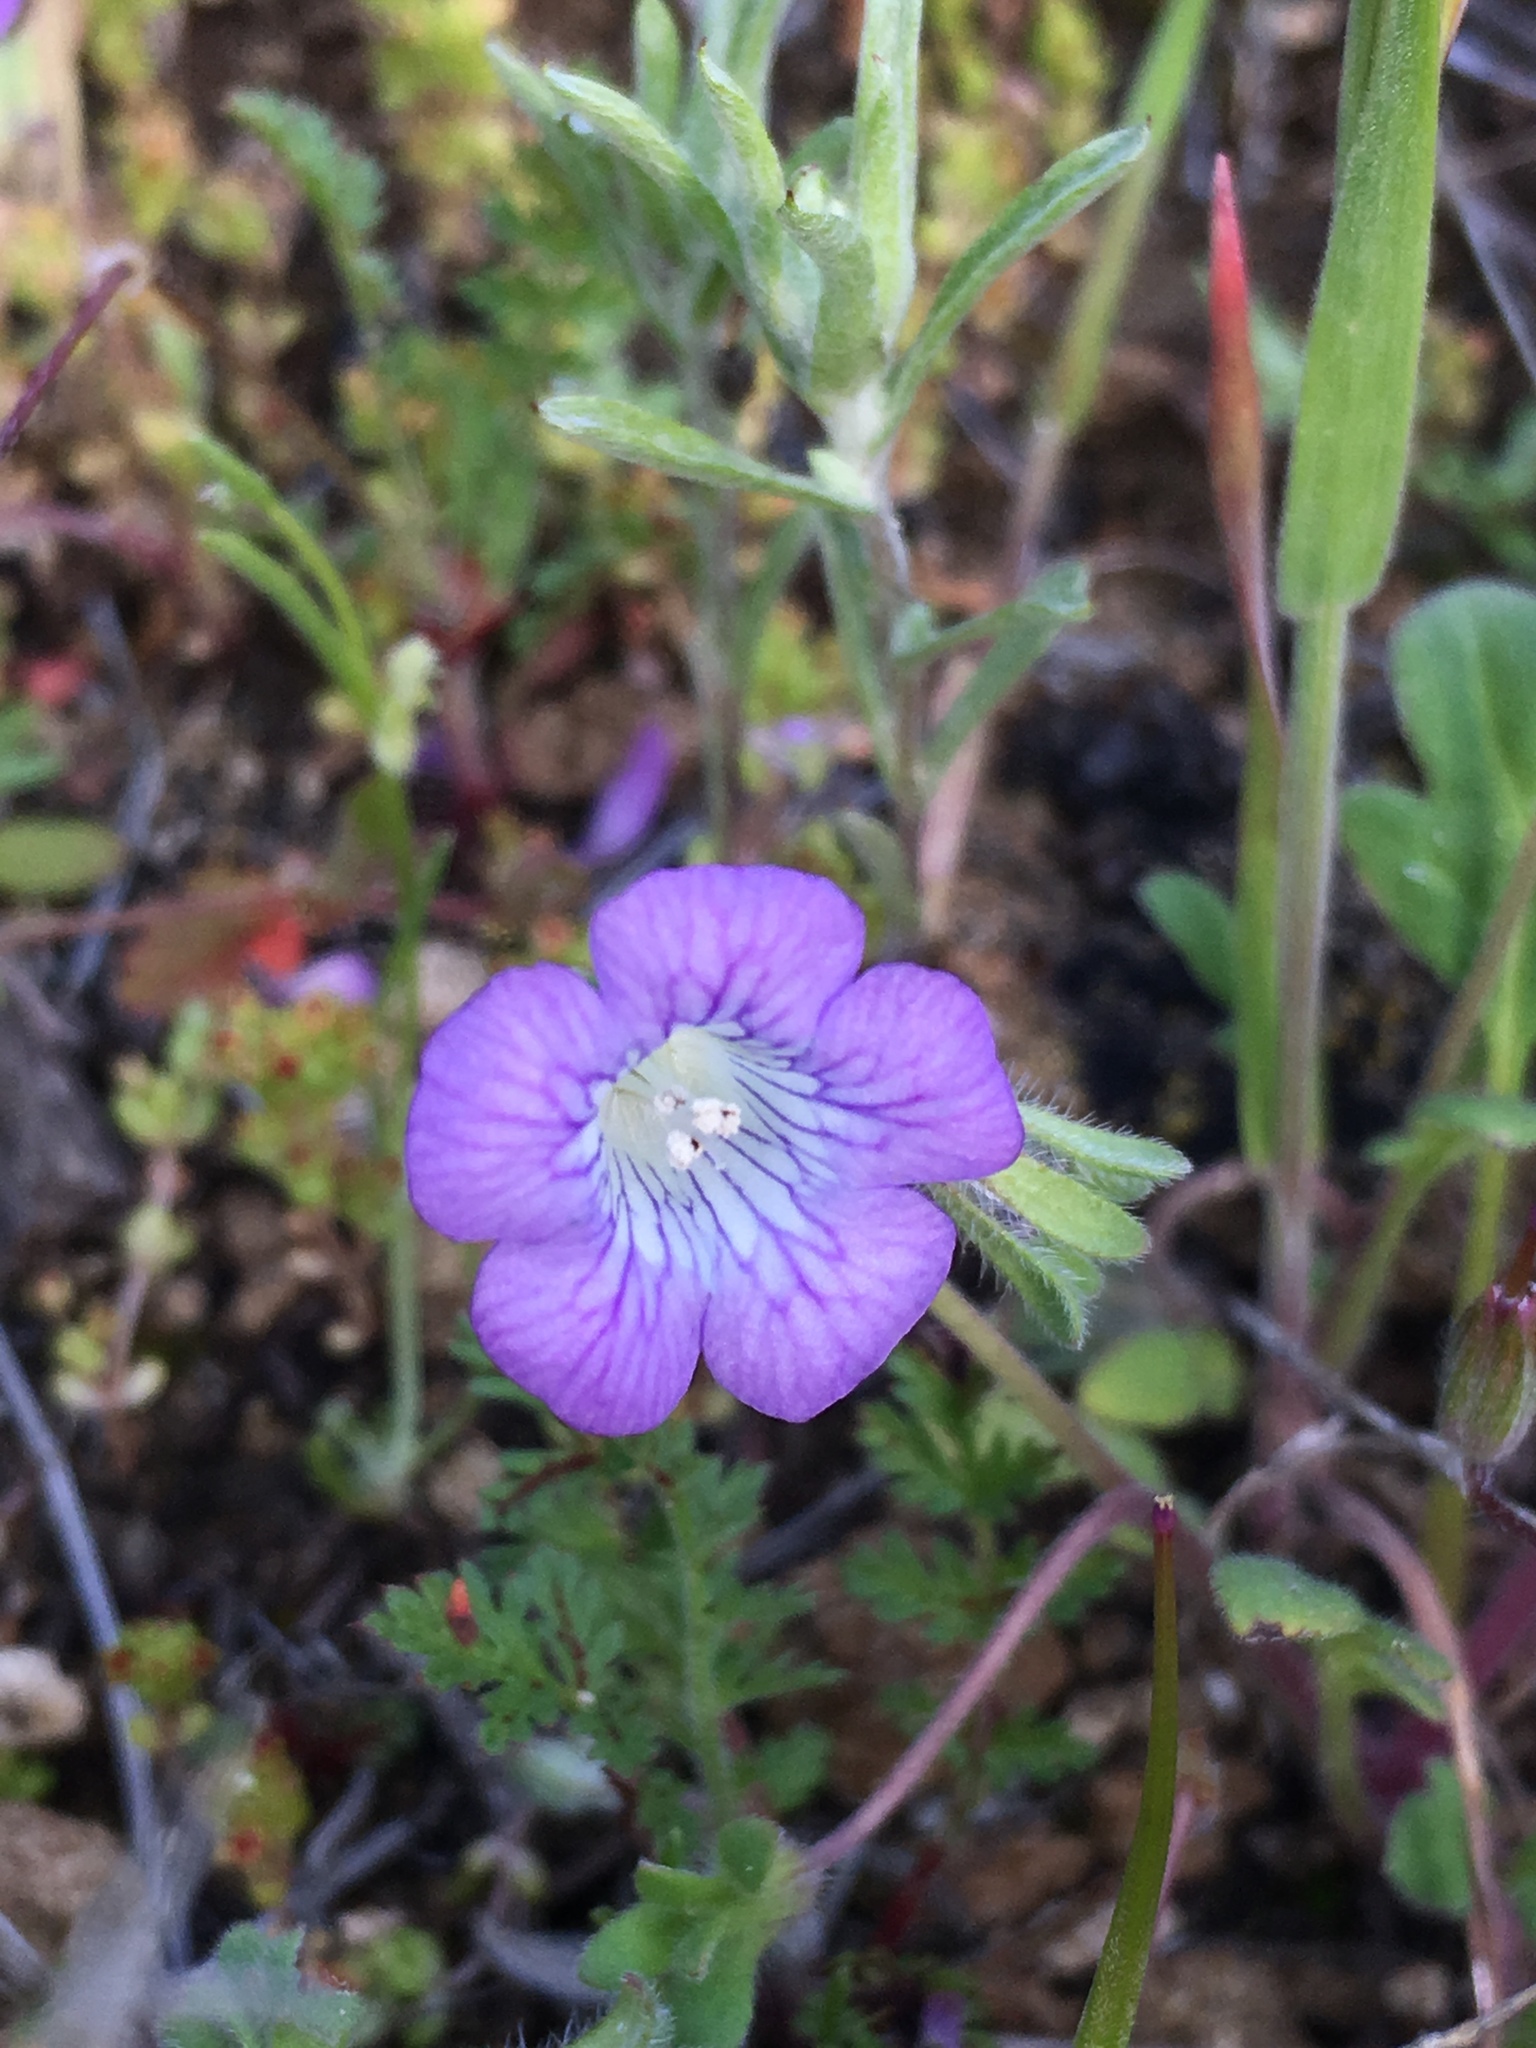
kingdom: Plantae
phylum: Tracheophyta
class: Magnoliopsida
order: Boraginales
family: Hydrophyllaceae
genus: Phacelia
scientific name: Phacelia douglasii
